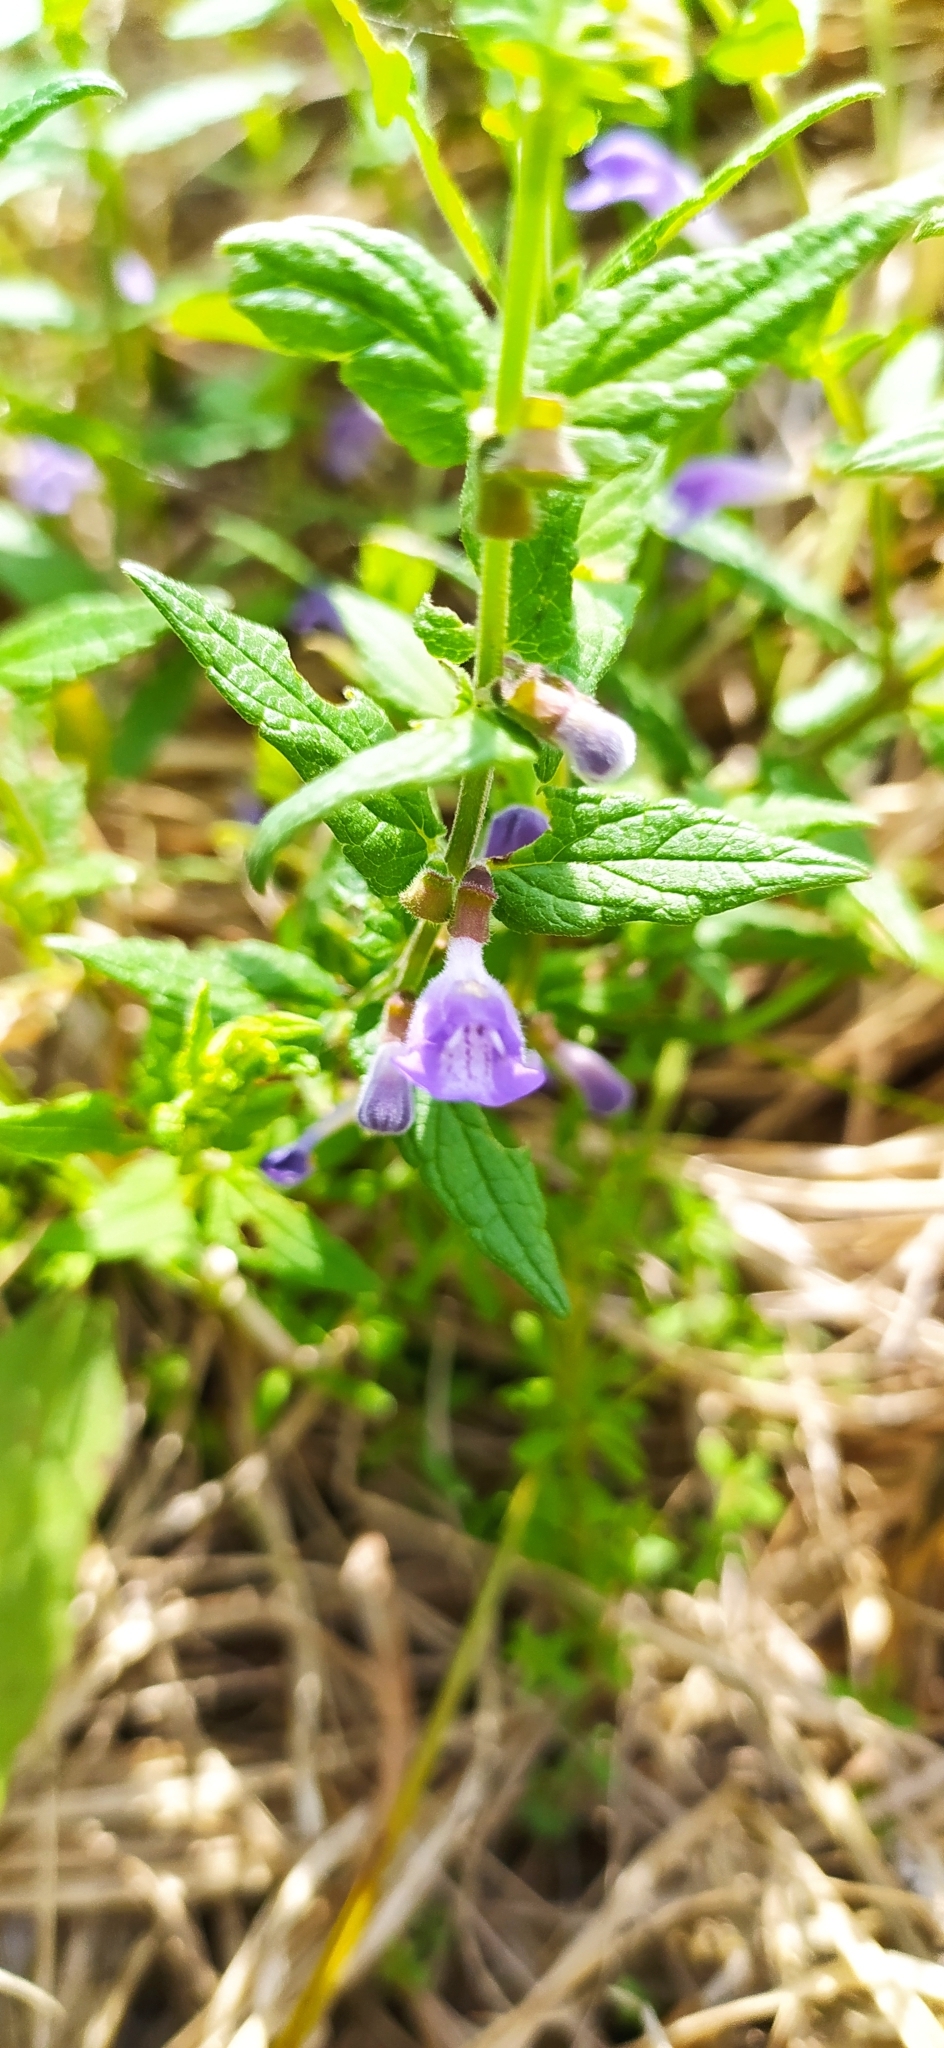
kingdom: Plantae
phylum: Tracheophyta
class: Magnoliopsida
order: Lamiales
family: Lamiaceae
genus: Scutellaria
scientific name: Scutellaria galericulata
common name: Skullcap
